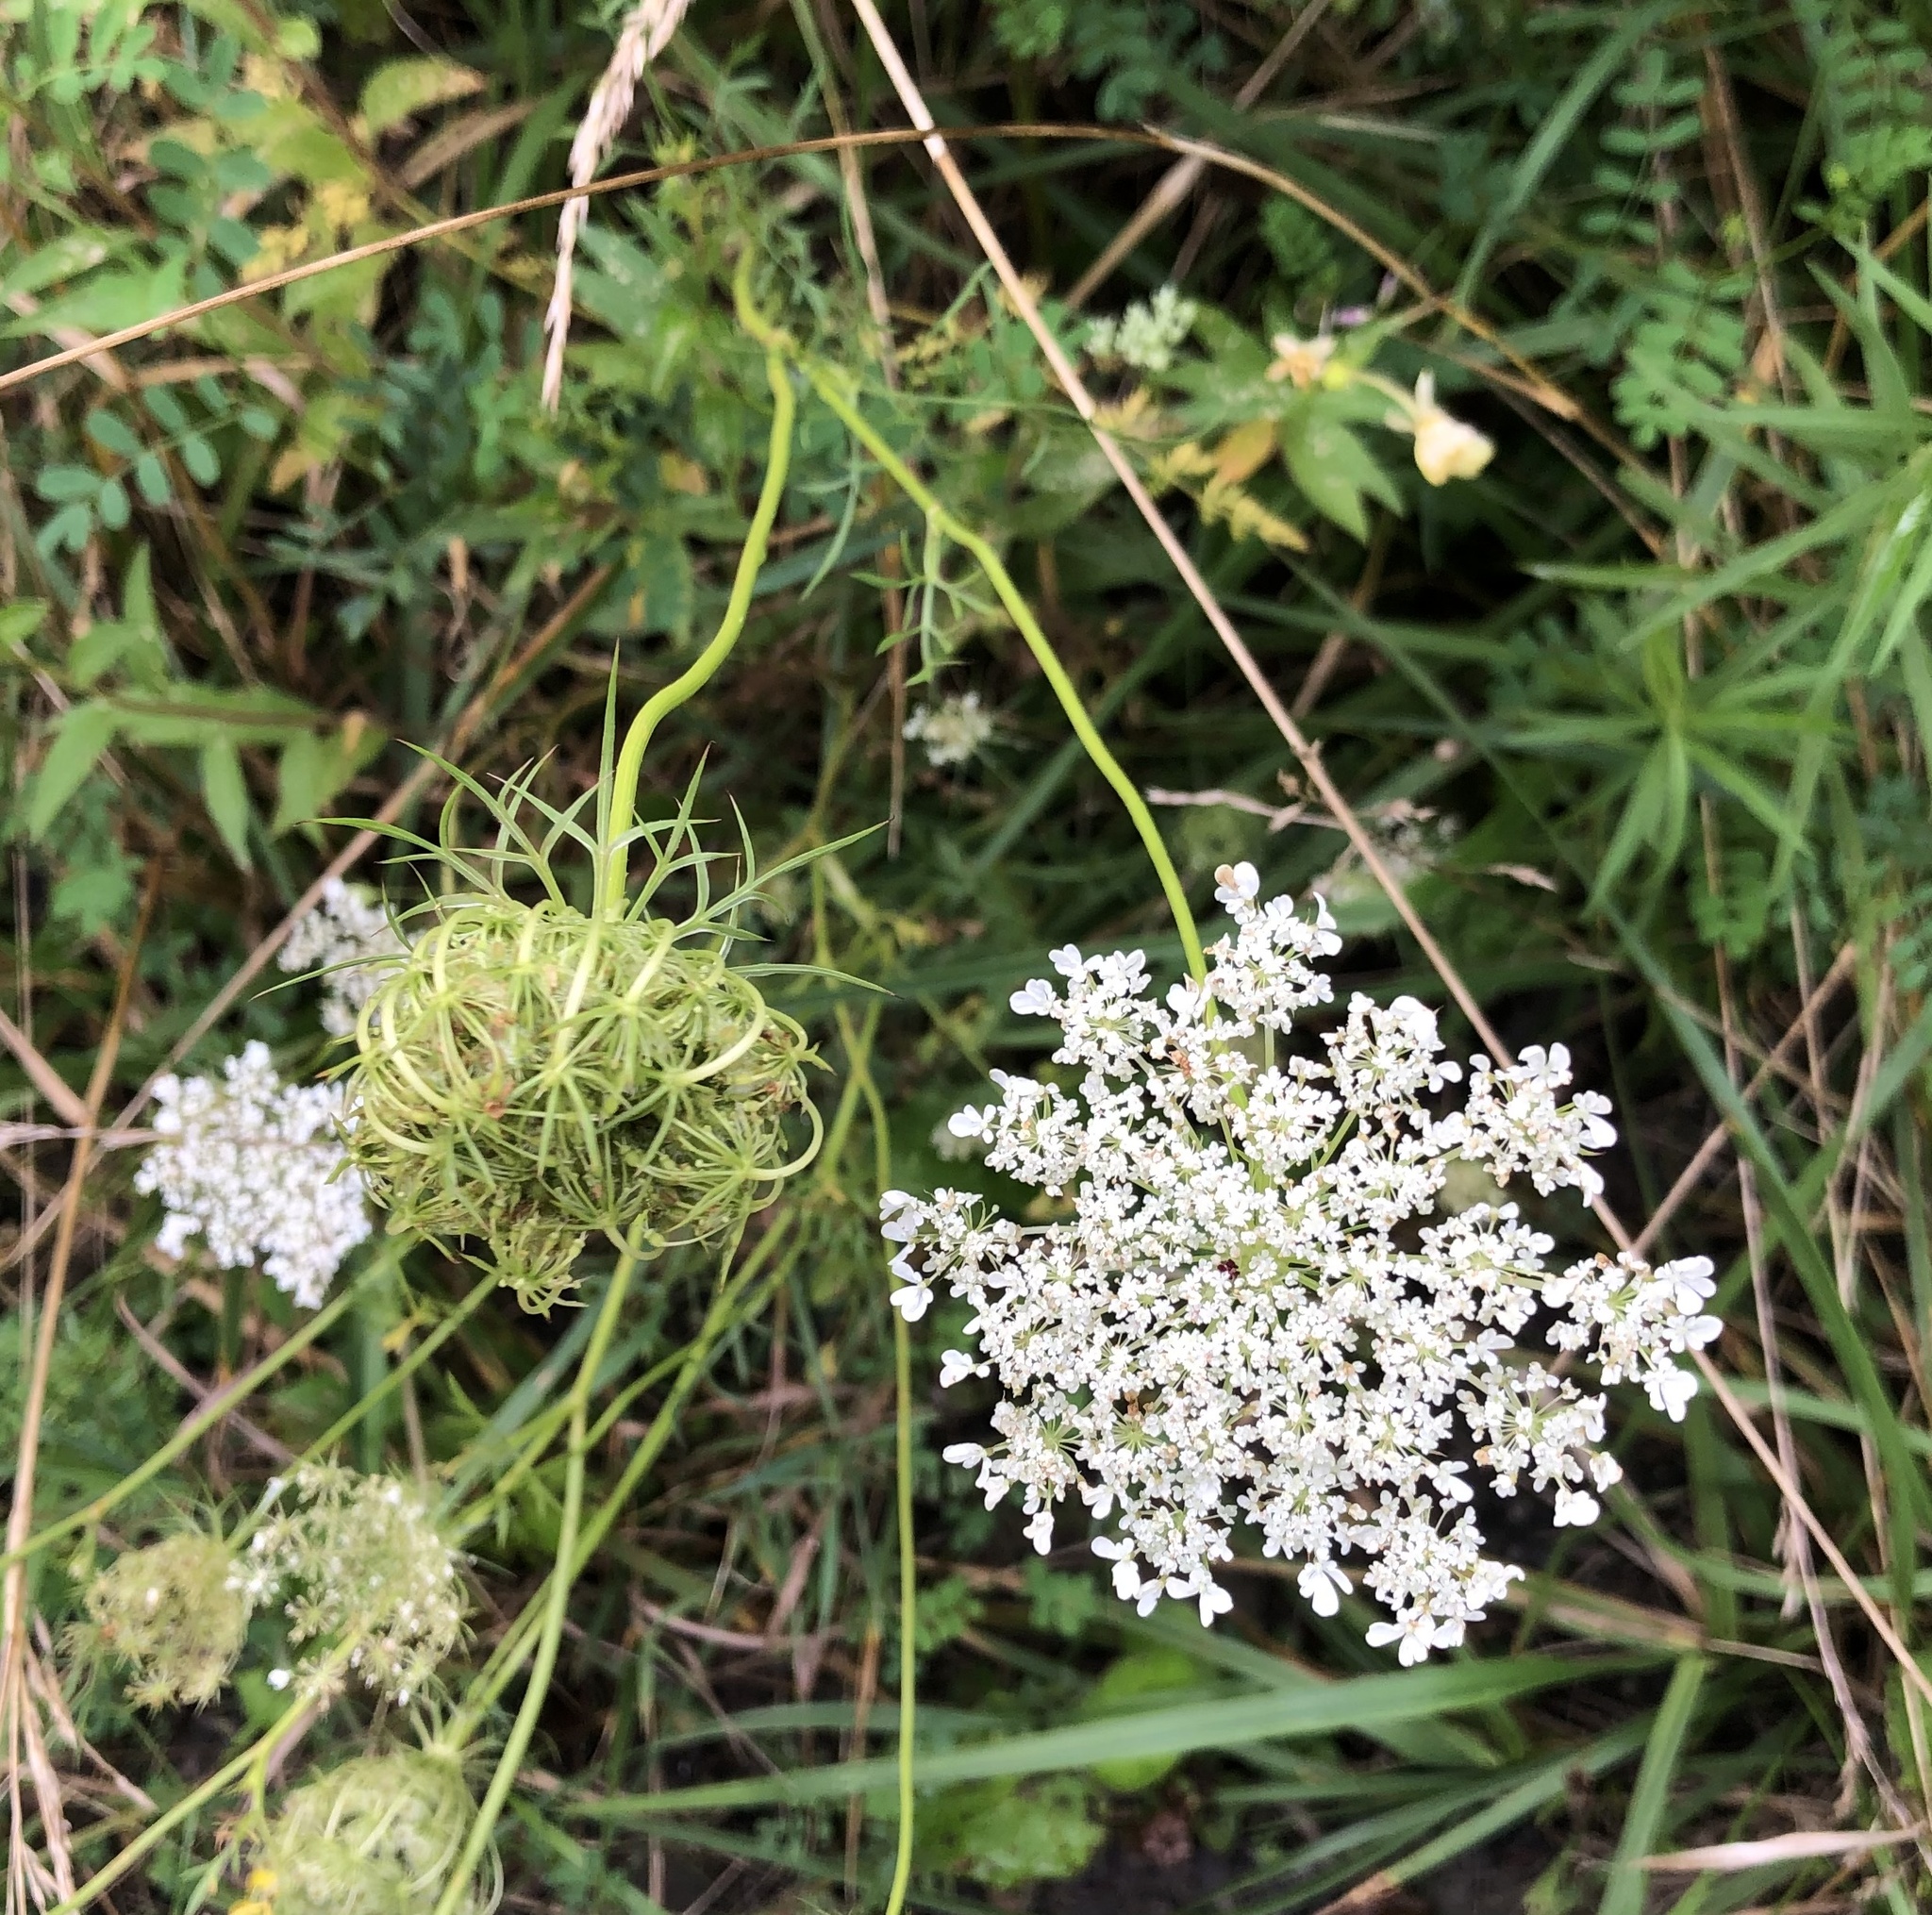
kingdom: Plantae
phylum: Tracheophyta
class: Magnoliopsida
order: Apiales
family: Apiaceae
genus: Daucus
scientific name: Daucus carota
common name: Wild carrot
